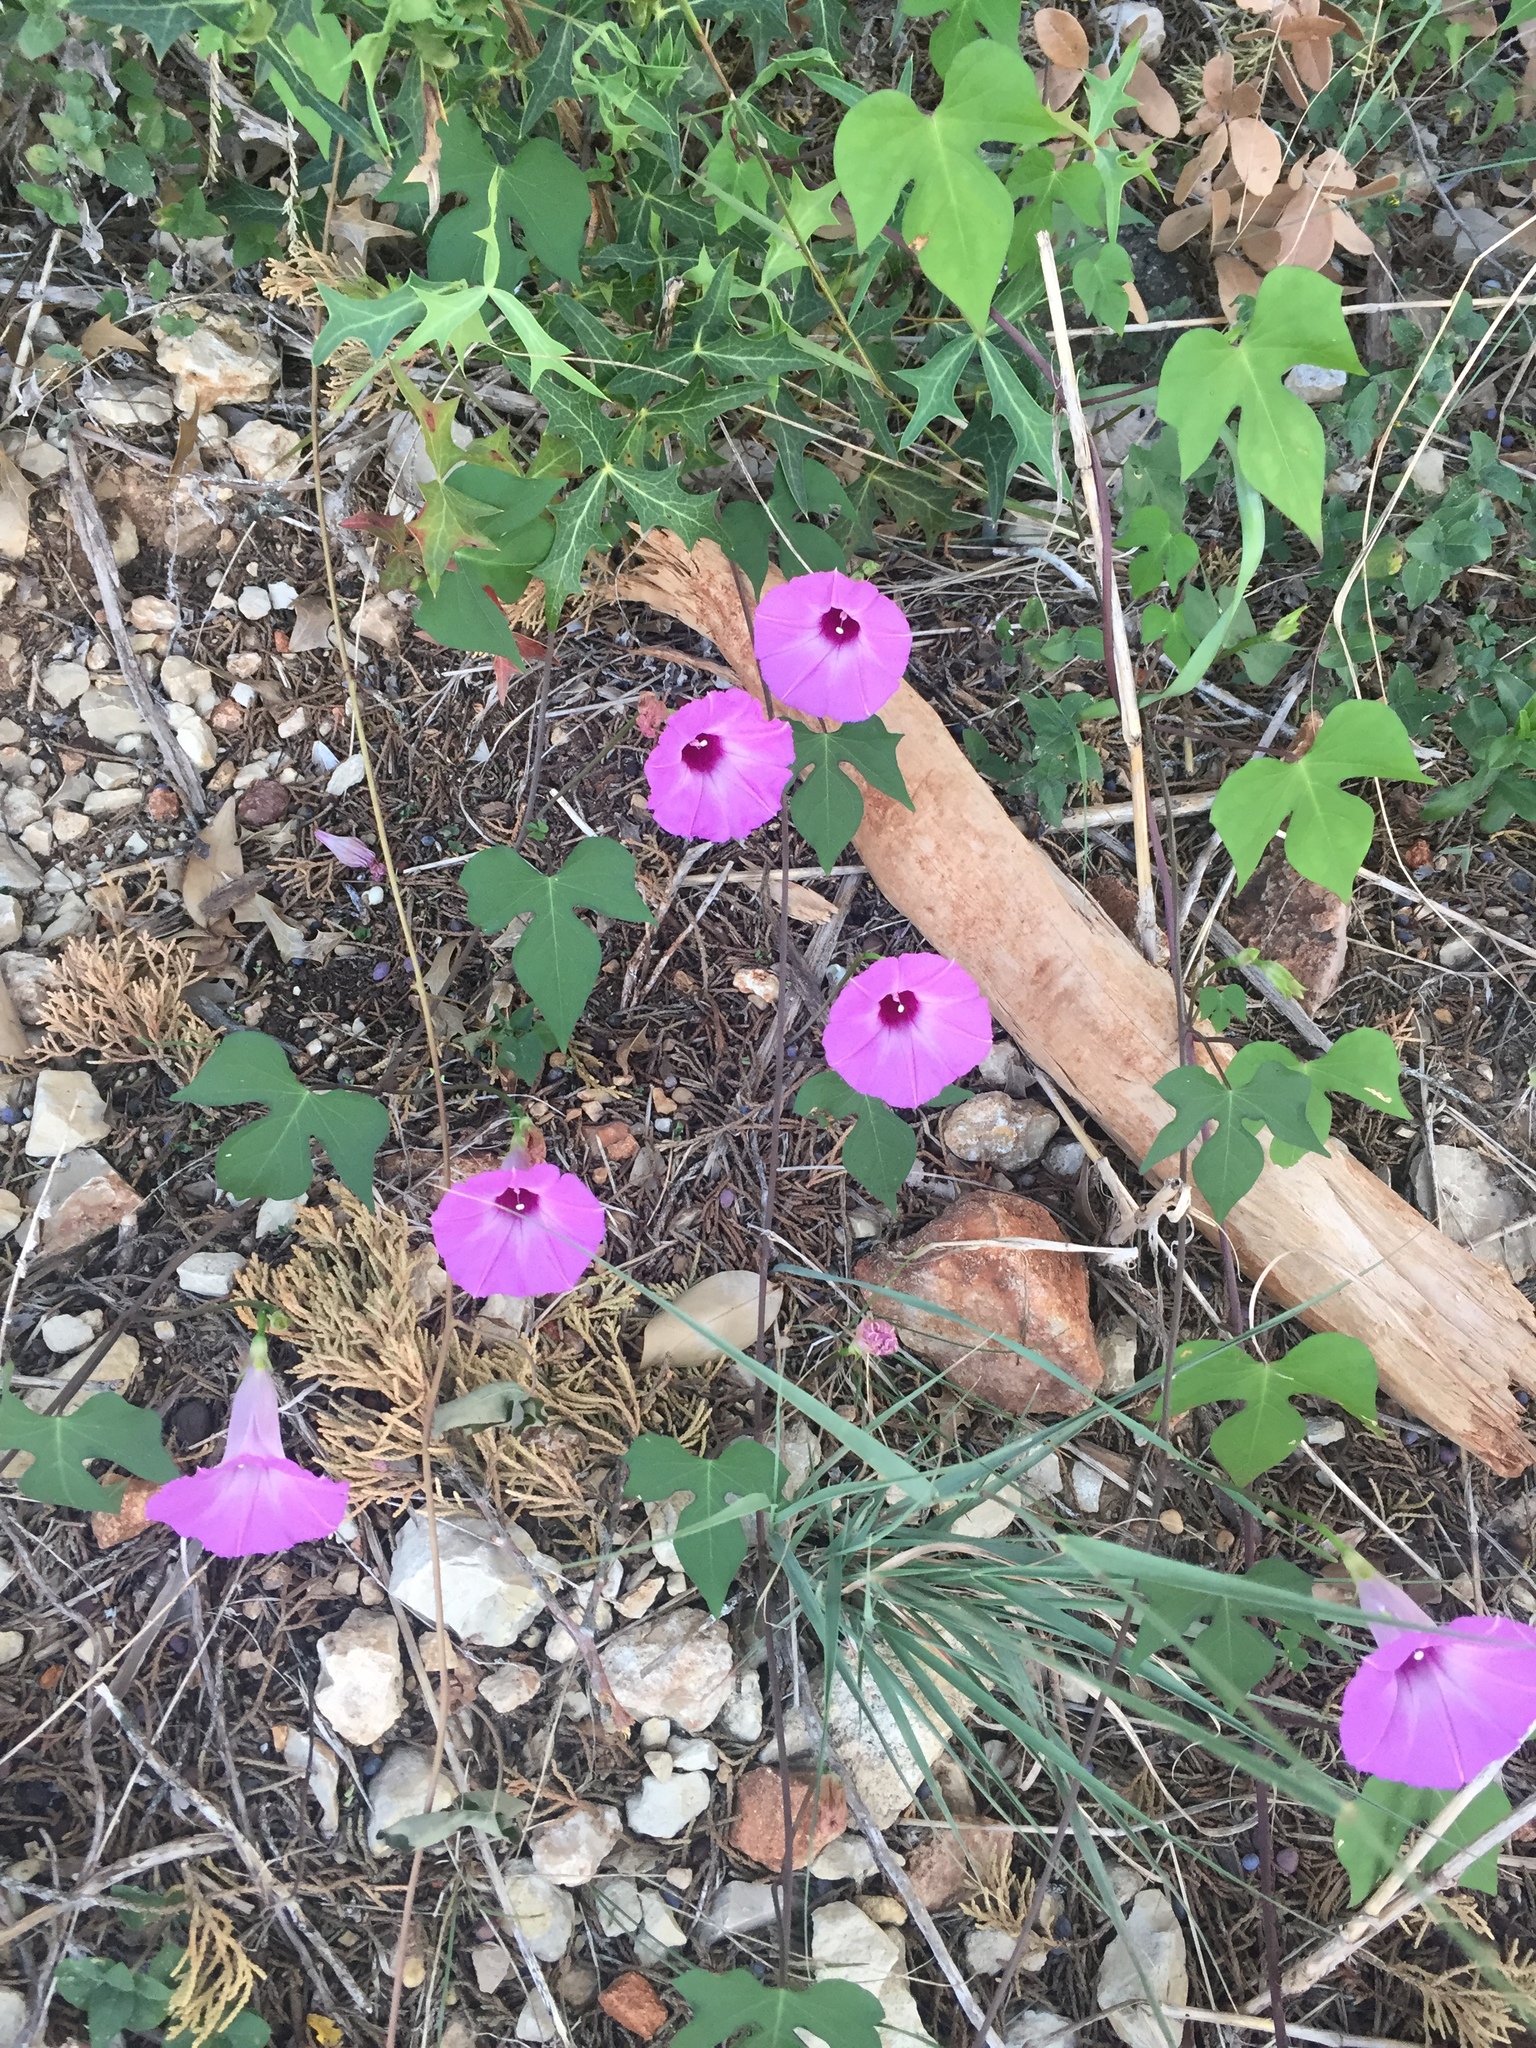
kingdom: Plantae
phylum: Tracheophyta
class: Magnoliopsida
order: Solanales
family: Convolvulaceae
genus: Ipomoea
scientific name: Ipomoea cordatotriloba
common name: Cotton morning glory
